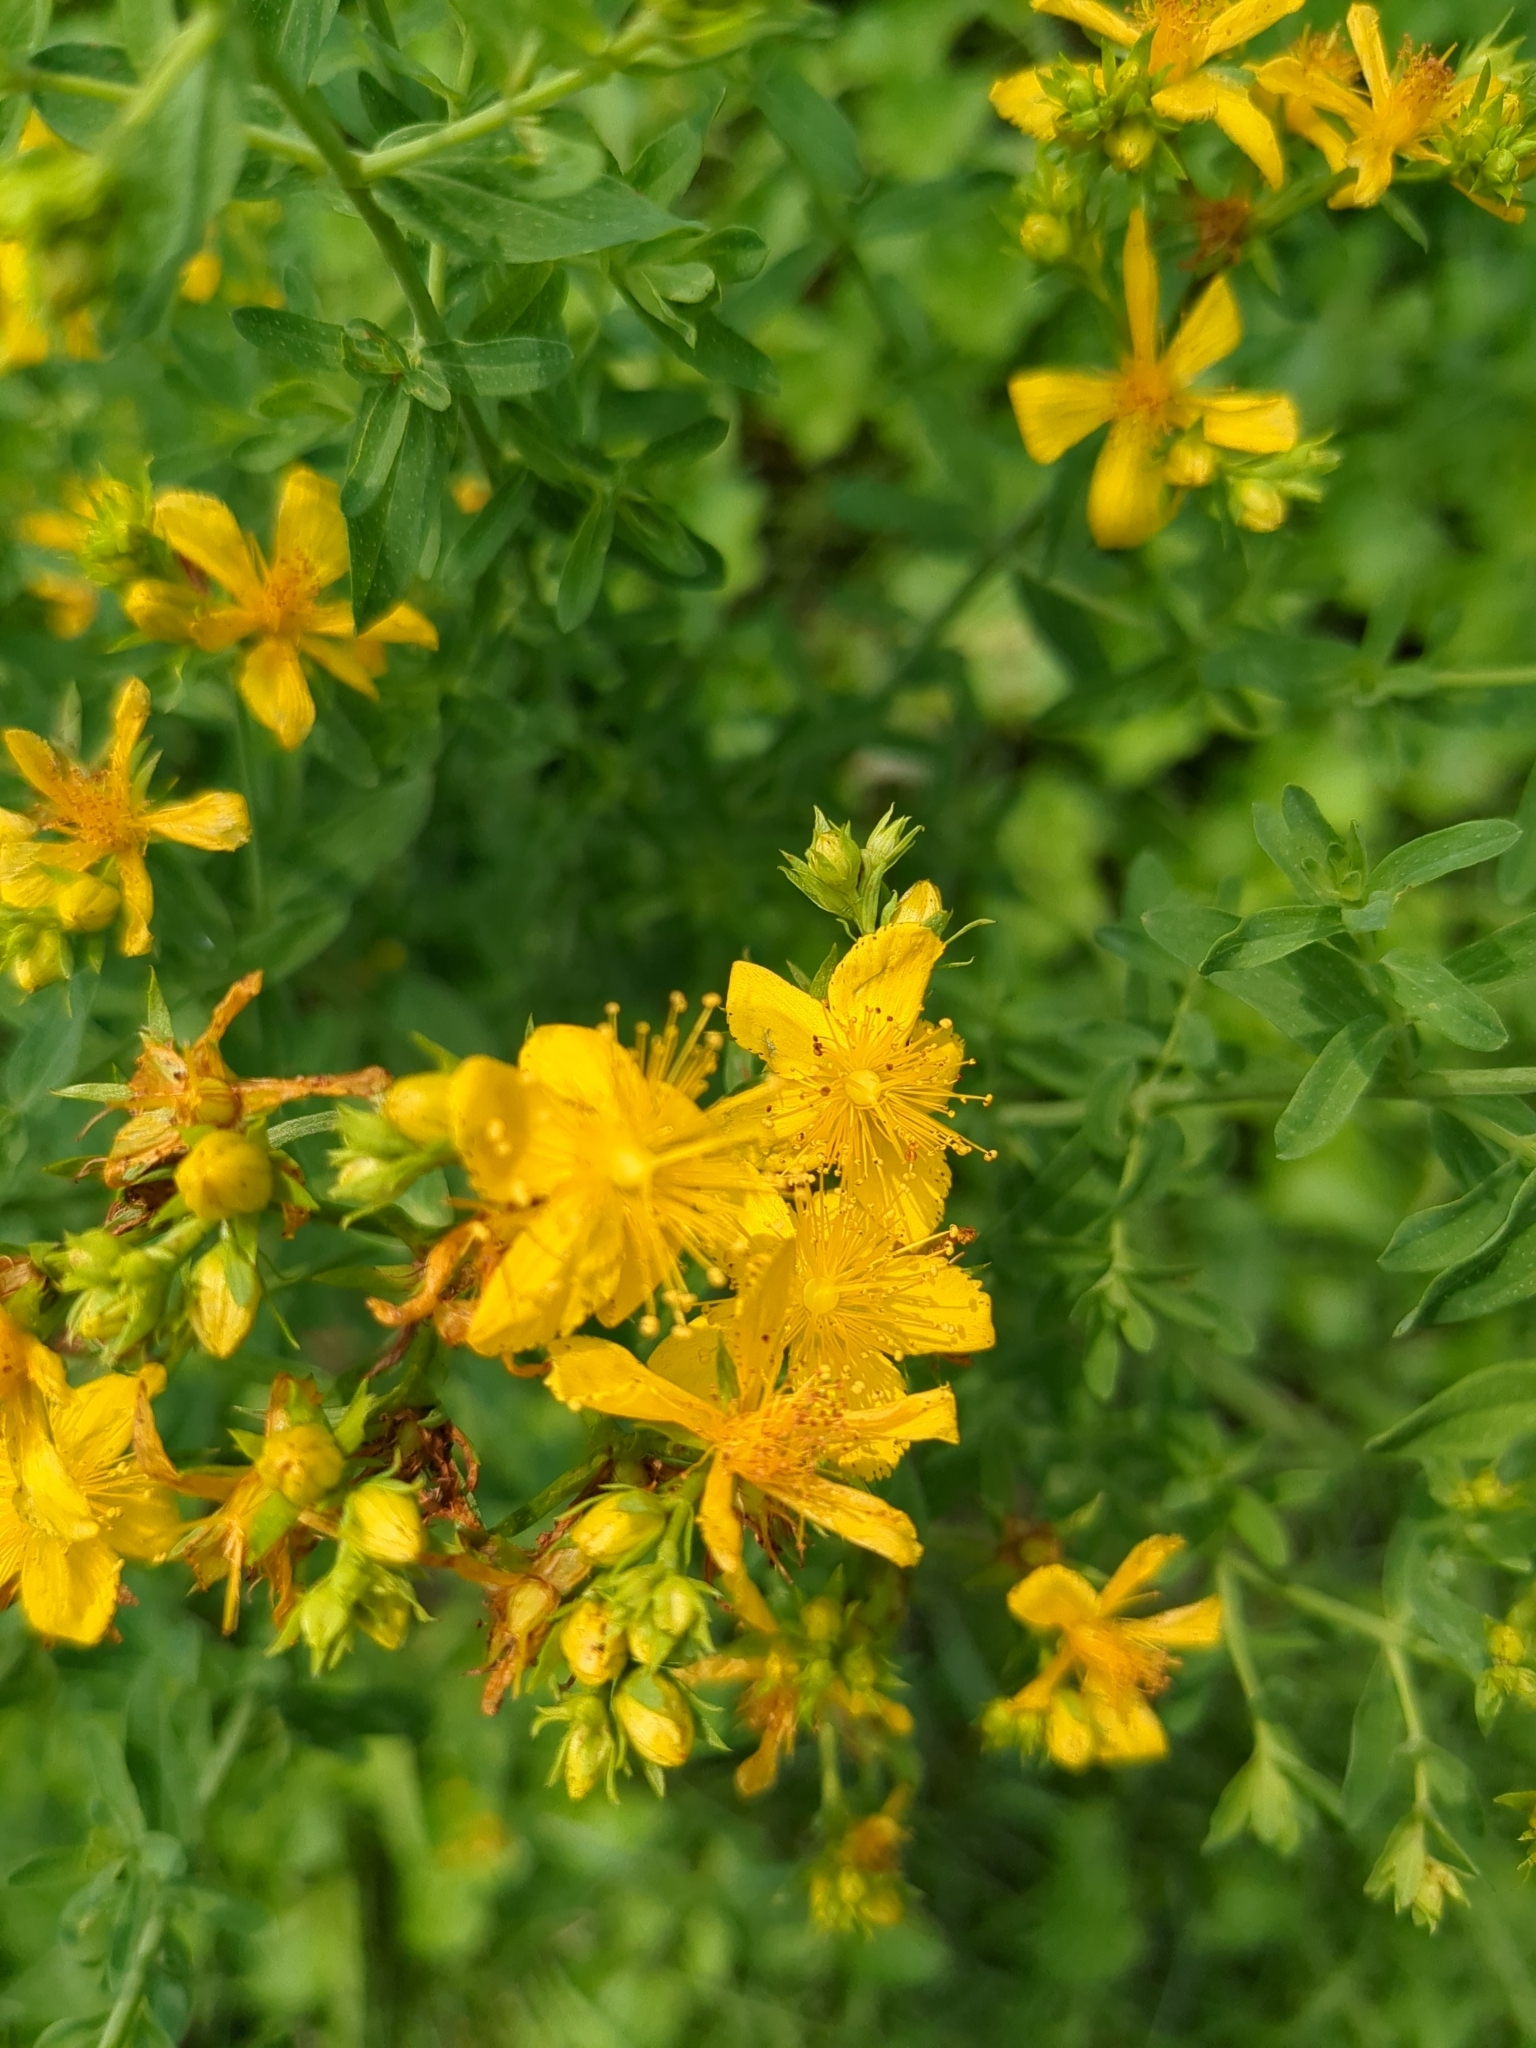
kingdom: Plantae
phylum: Tracheophyta
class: Magnoliopsida
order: Malpighiales
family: Hypericaceae
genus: Hypericum
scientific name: Hypericum perforatum
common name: Common st. johnswort
